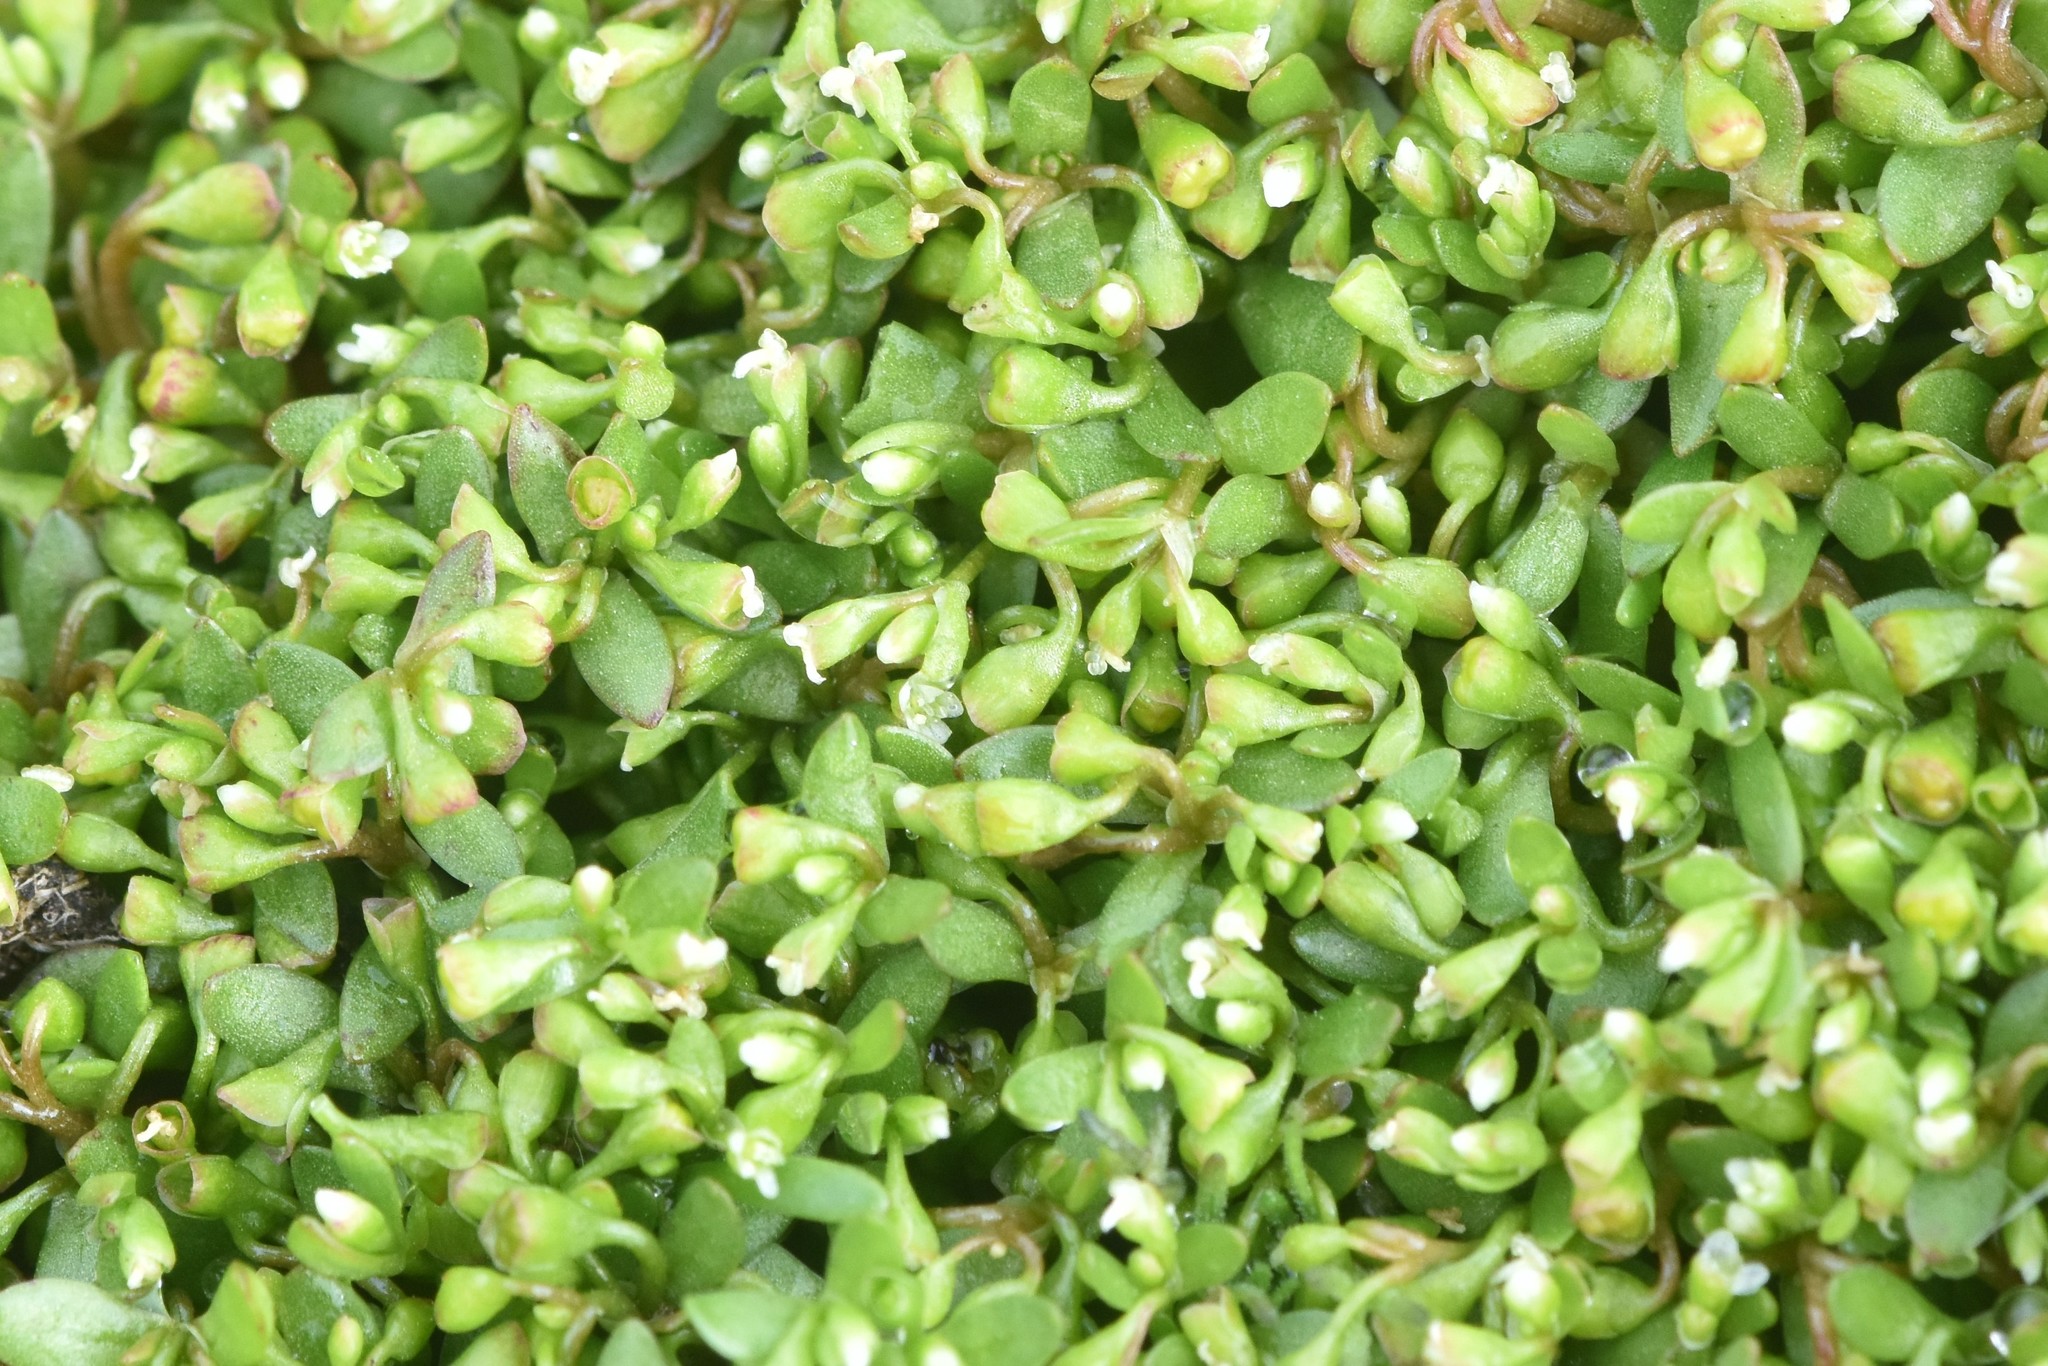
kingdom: Plantae
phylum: Tracheophyta
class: Magnoliopsida
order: Caryophyllales
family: Montiaceae
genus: Montia
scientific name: Montia fontana
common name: Blinks
